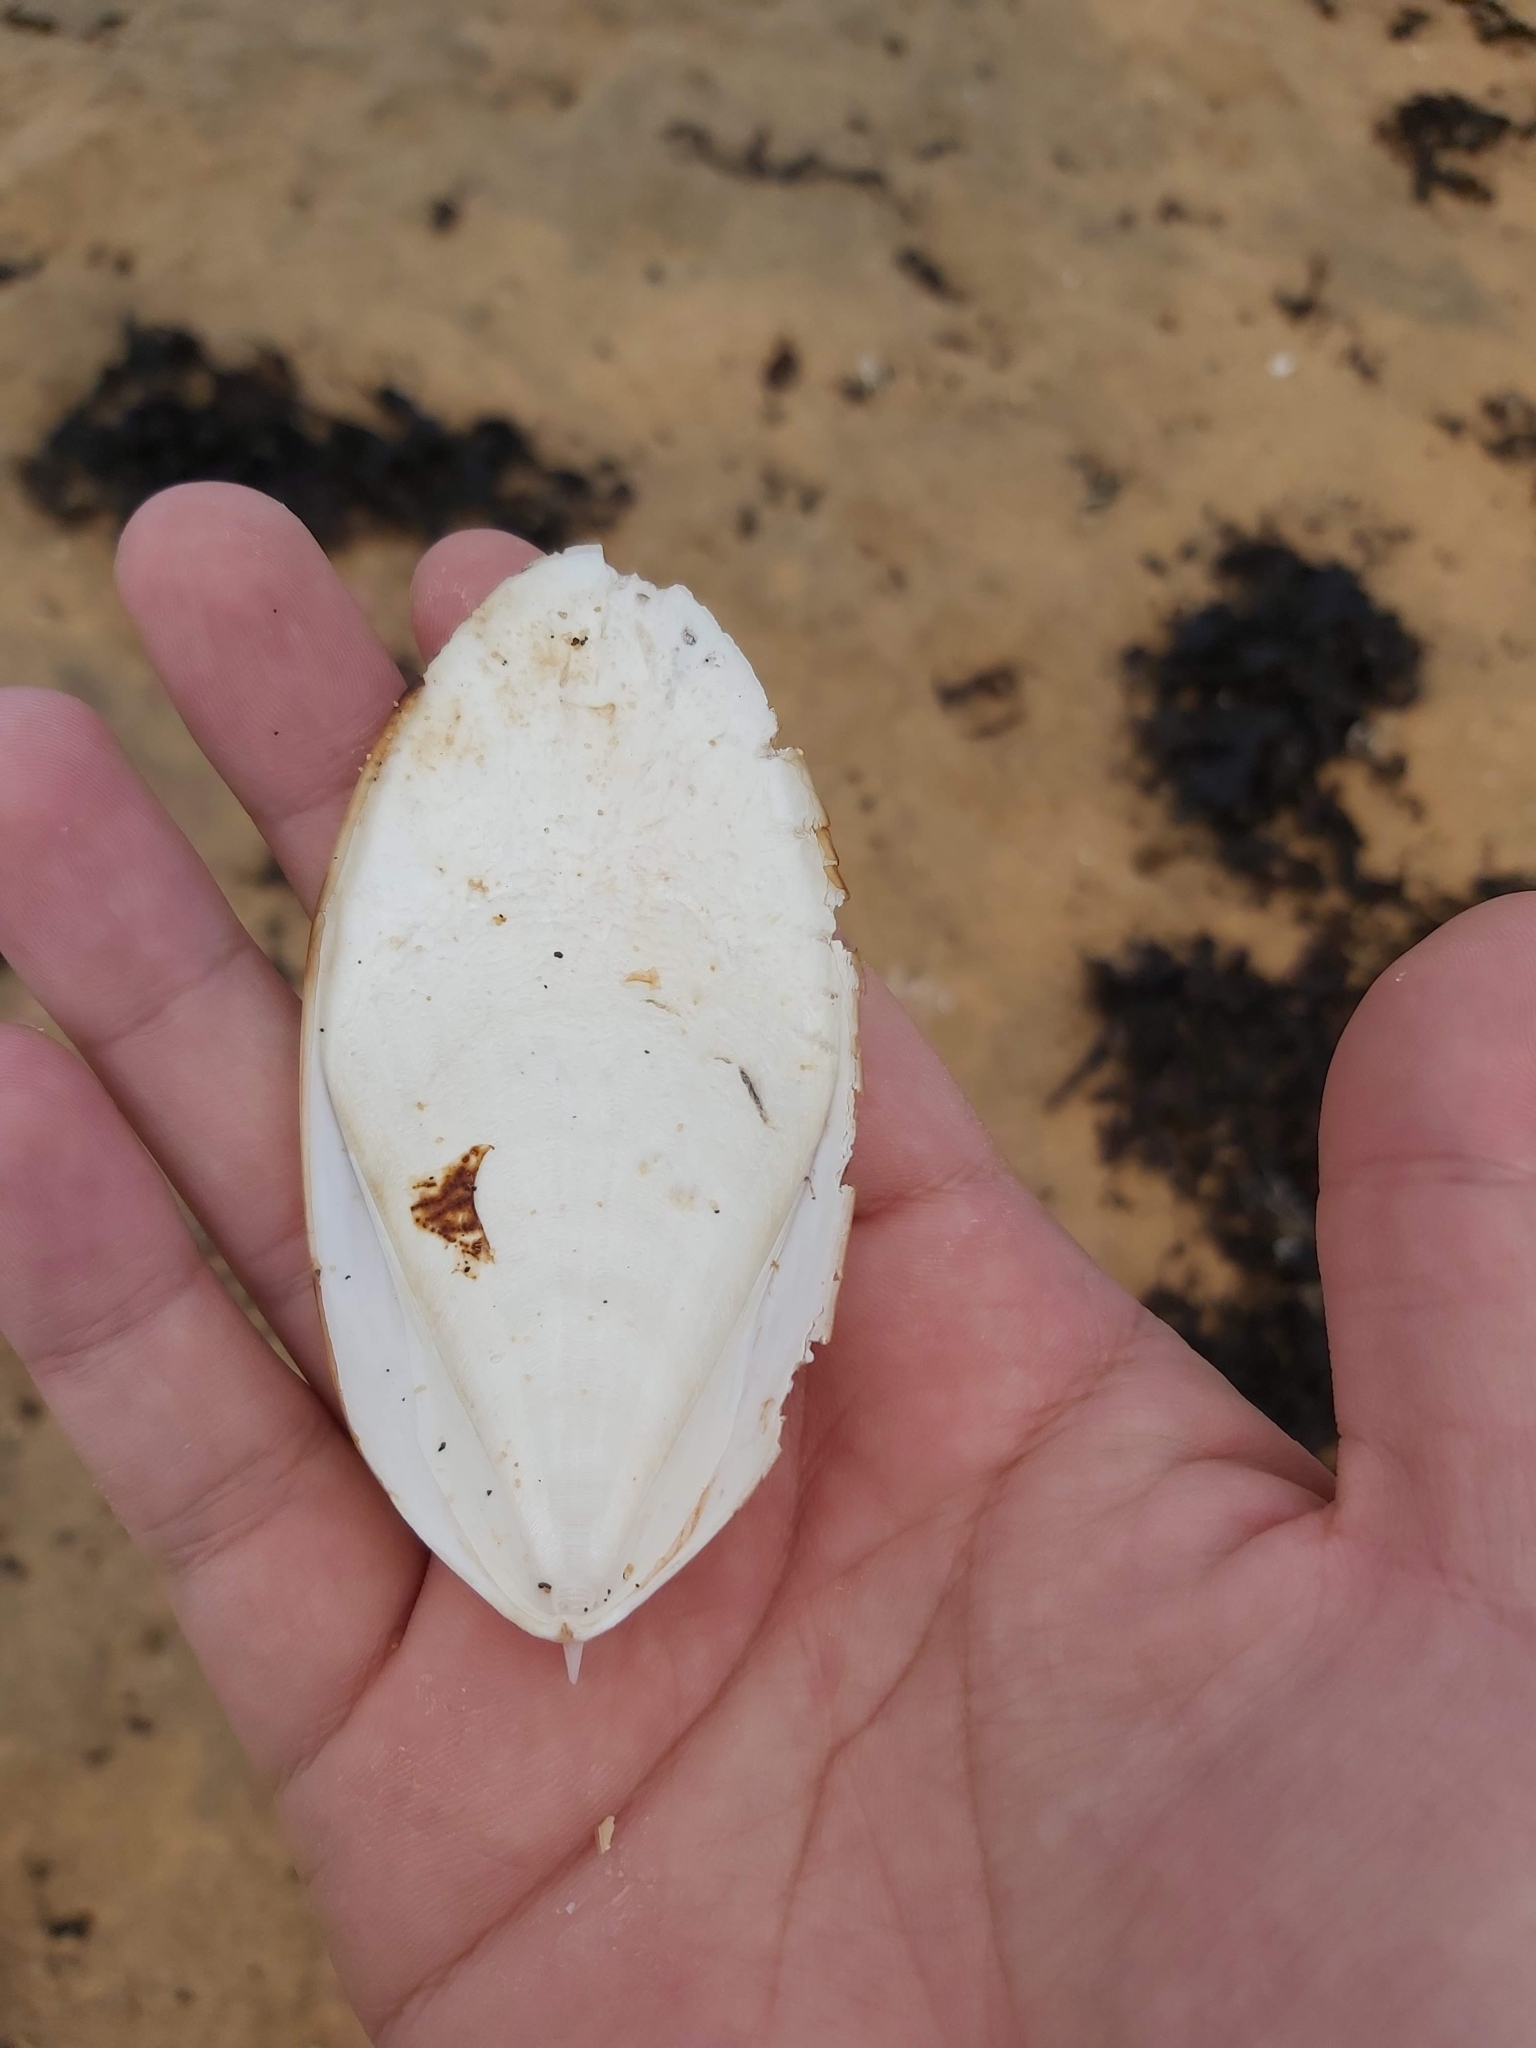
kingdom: Animalia
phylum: Mollusca
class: Cephalopoda
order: Sepiida
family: Sepiidae
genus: Ascarosepion
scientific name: Ascarosepion mestus
